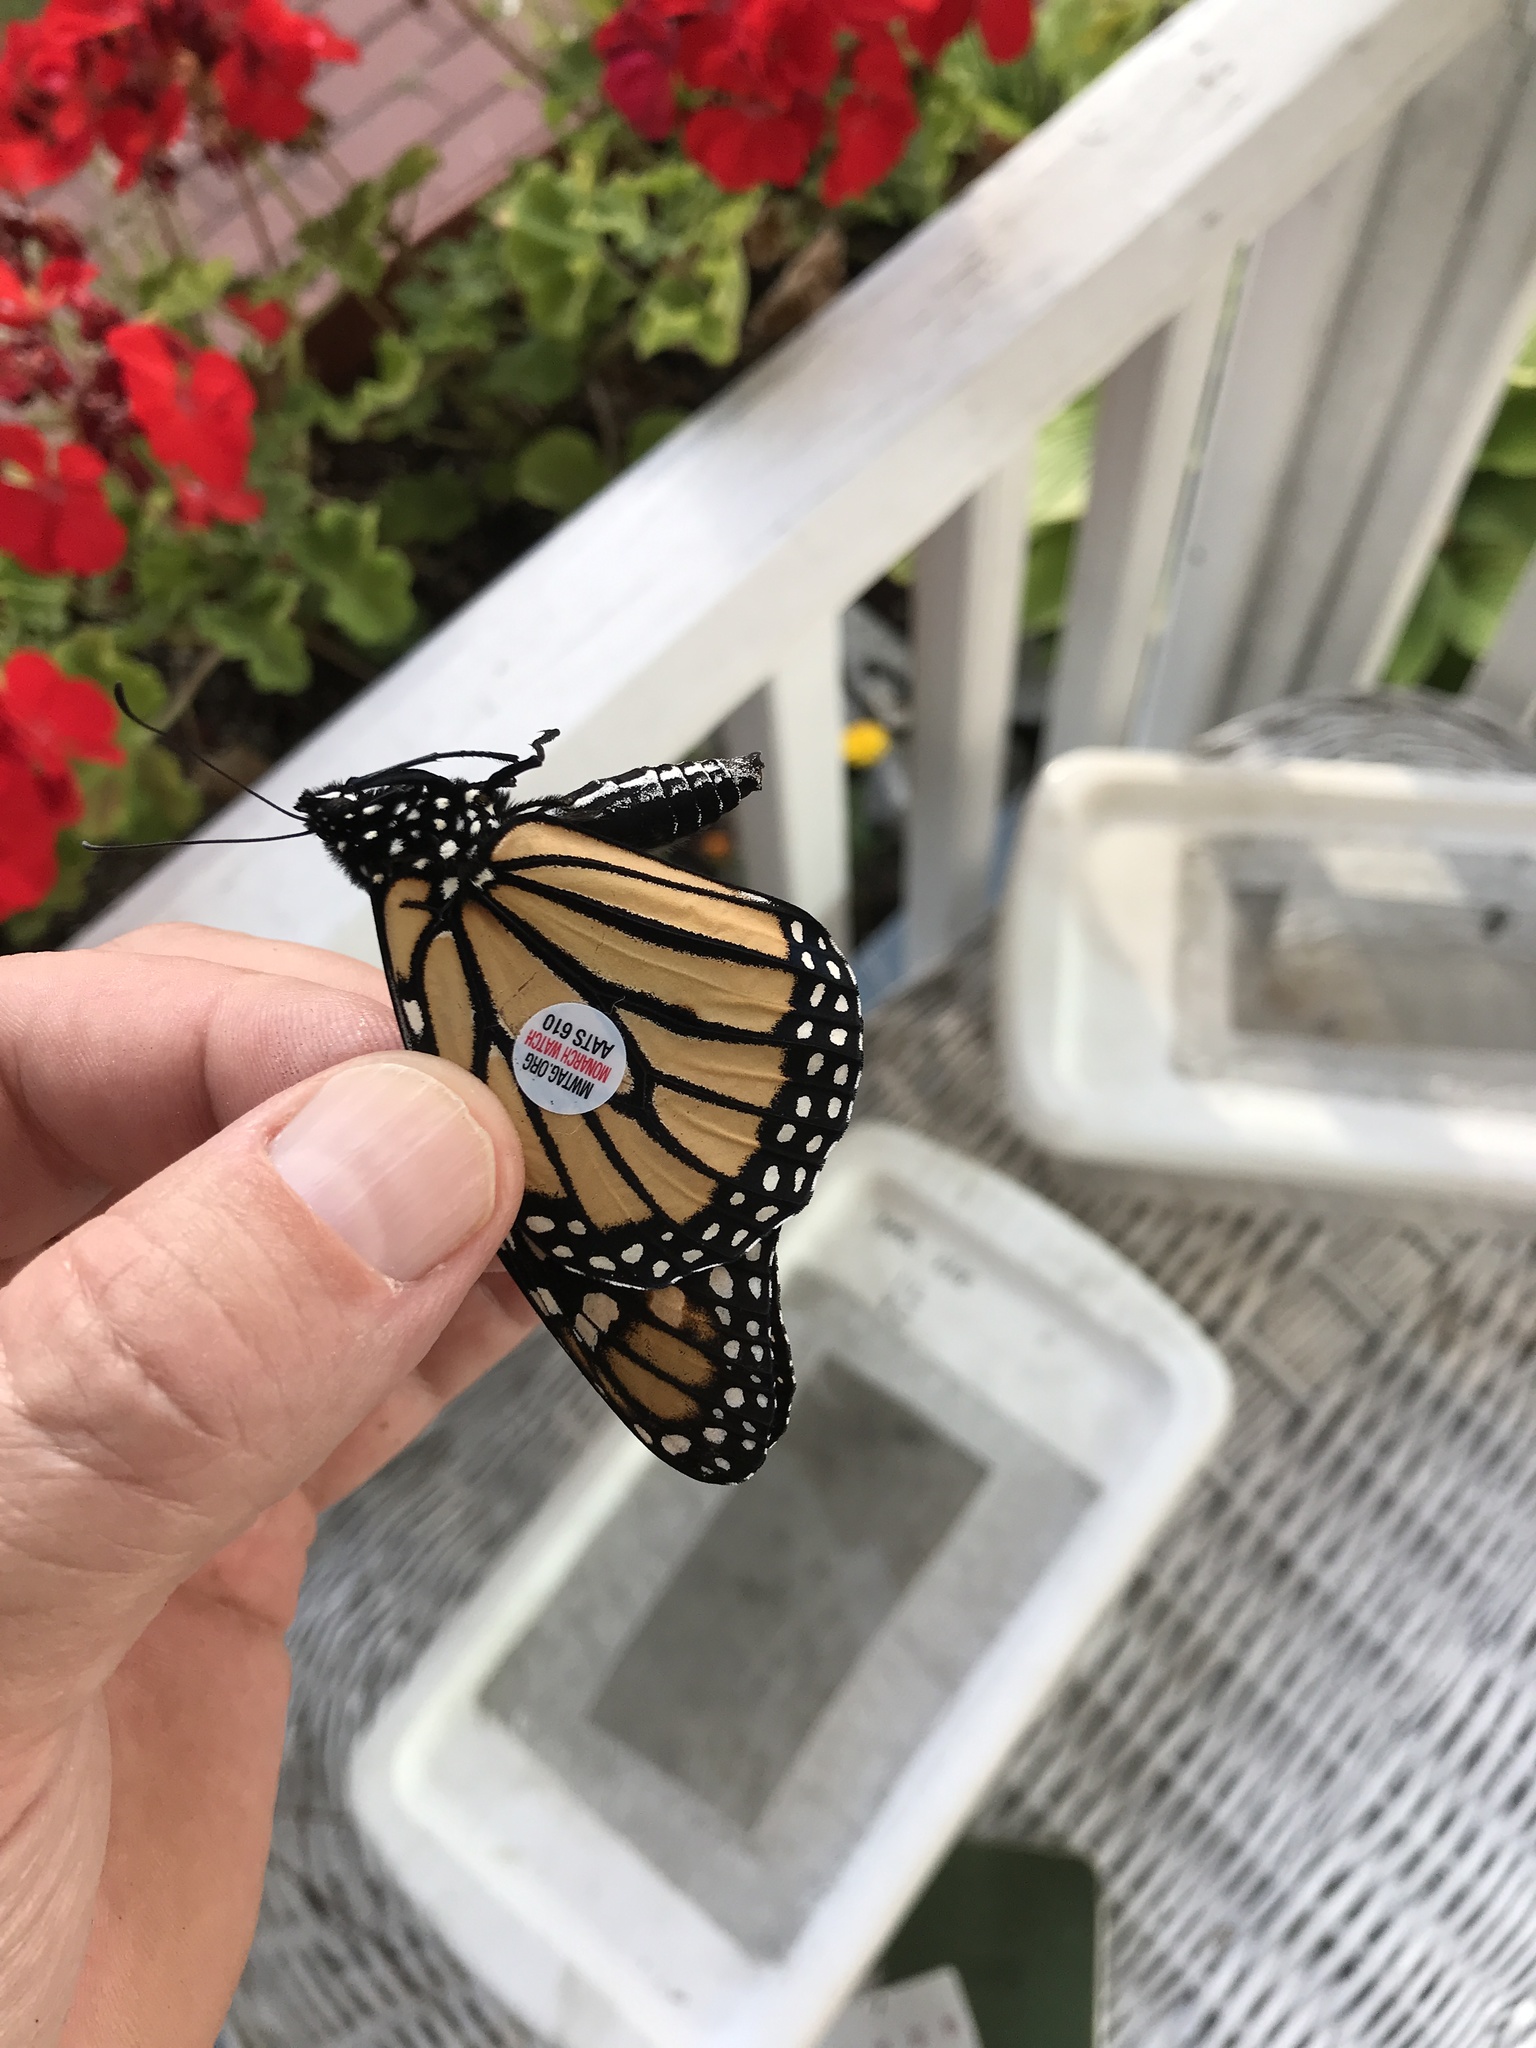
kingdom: Animalia
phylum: Arthropoda
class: Insecta
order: Lepidoptera
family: Nymphalidae
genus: Danaus
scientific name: Danaus plexippus
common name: Monarch
